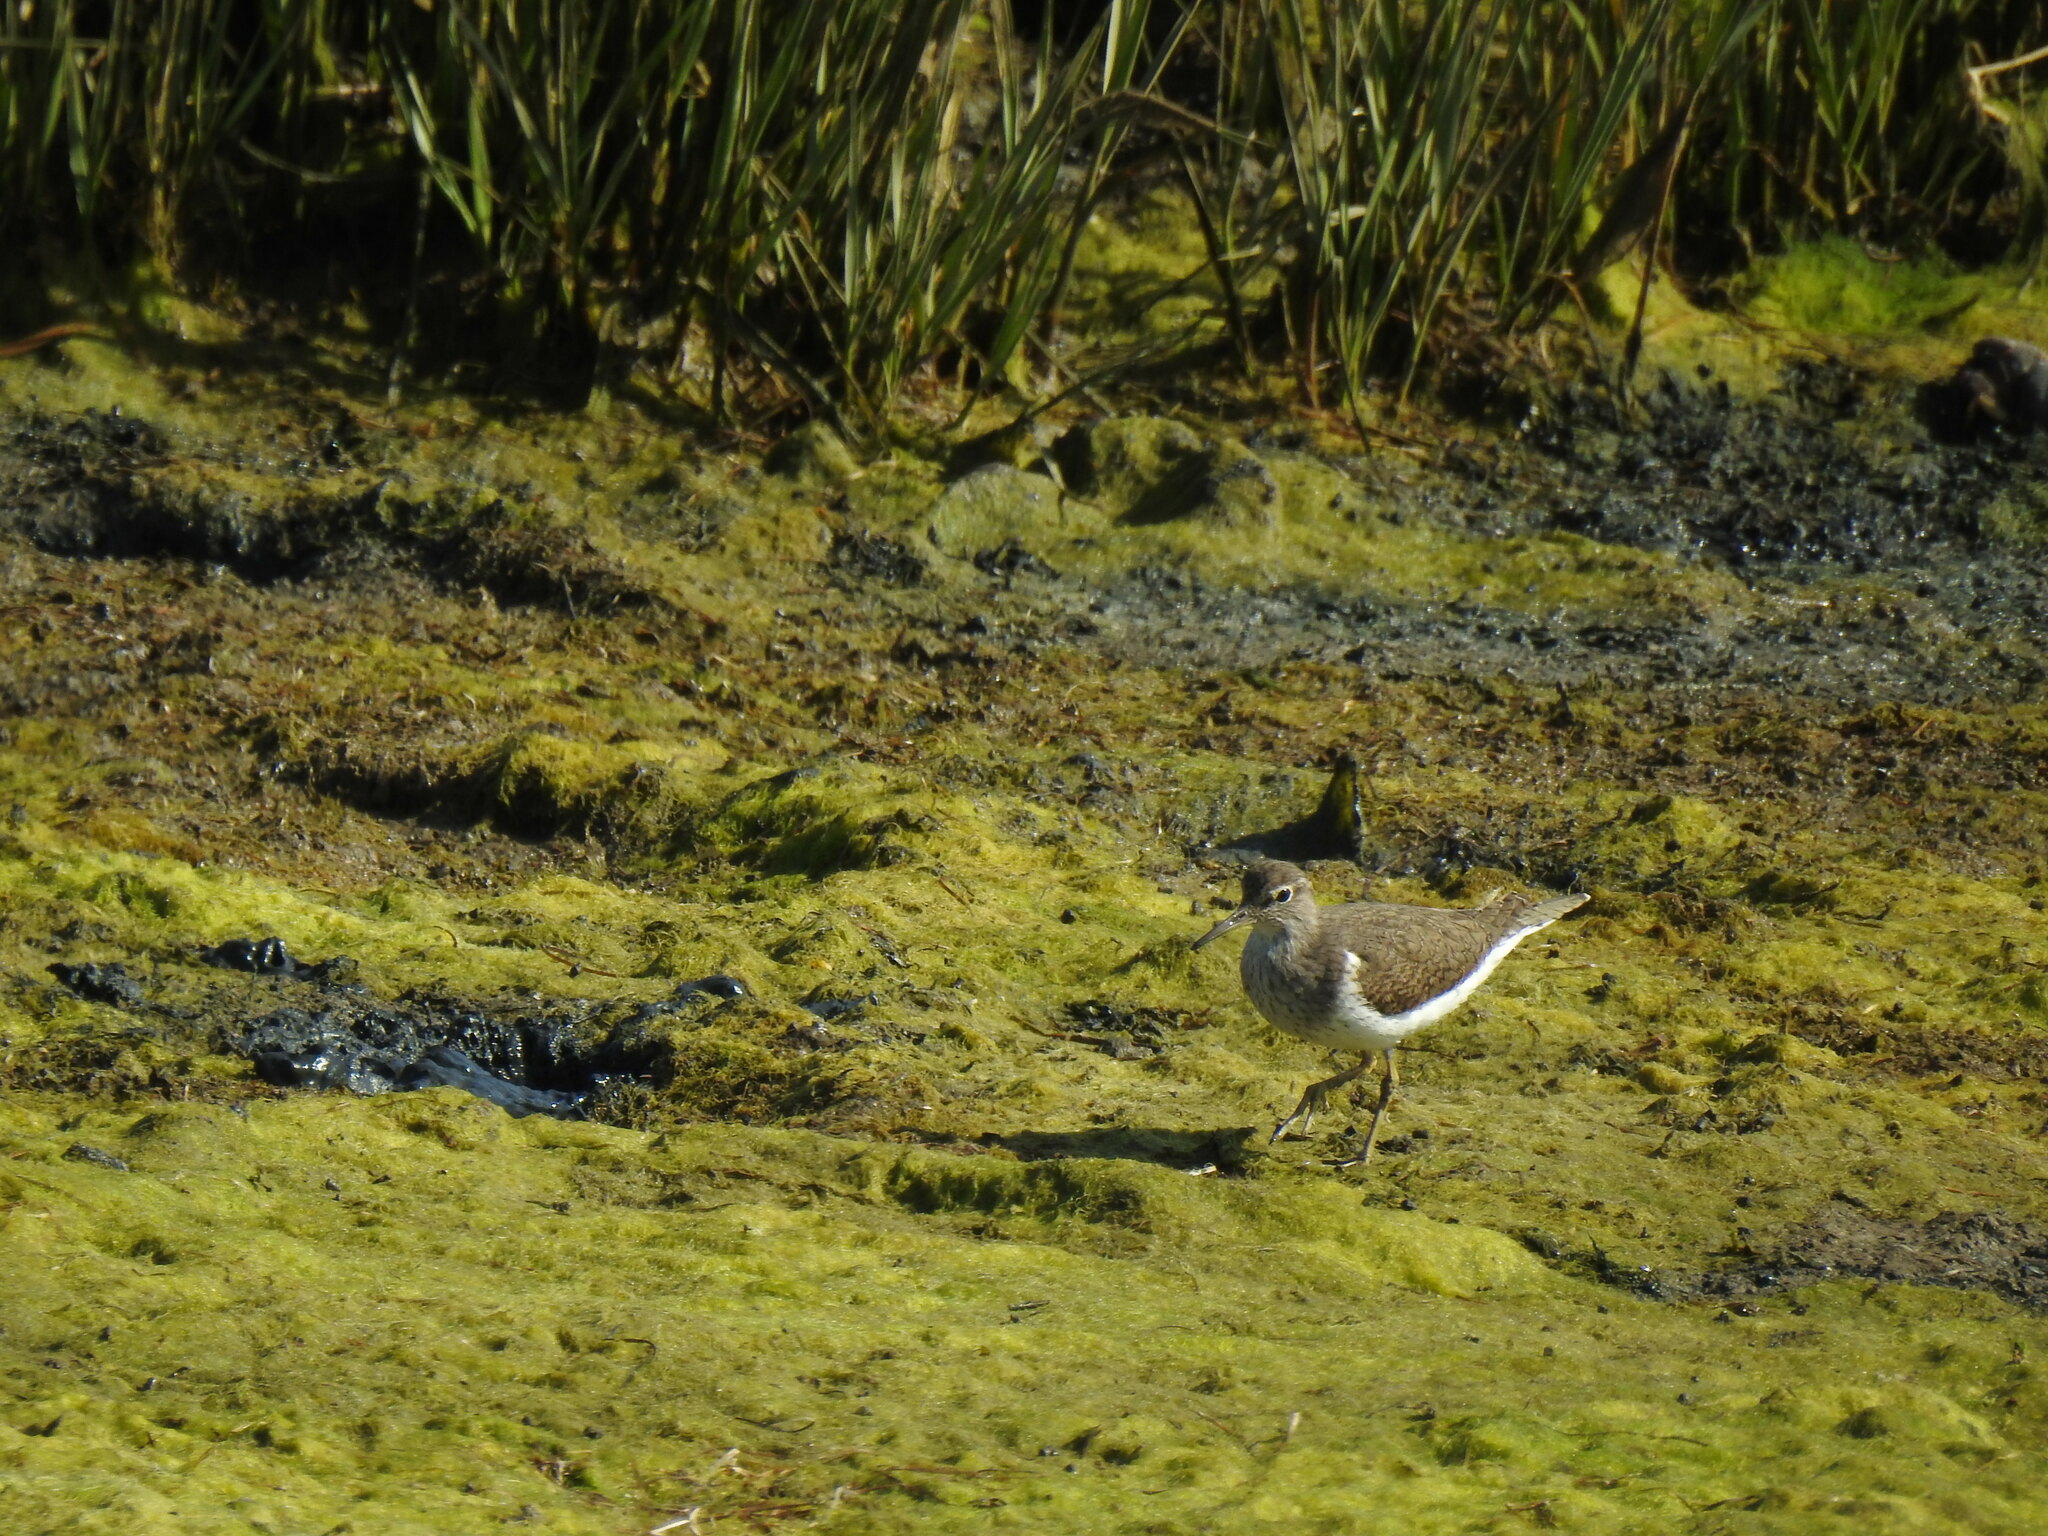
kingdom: Animalia
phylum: Chordata
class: Aves
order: Charadriiformes
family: Scolopacidae
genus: Actitis
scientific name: Actitis hypoleucos
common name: Common sandpiper
